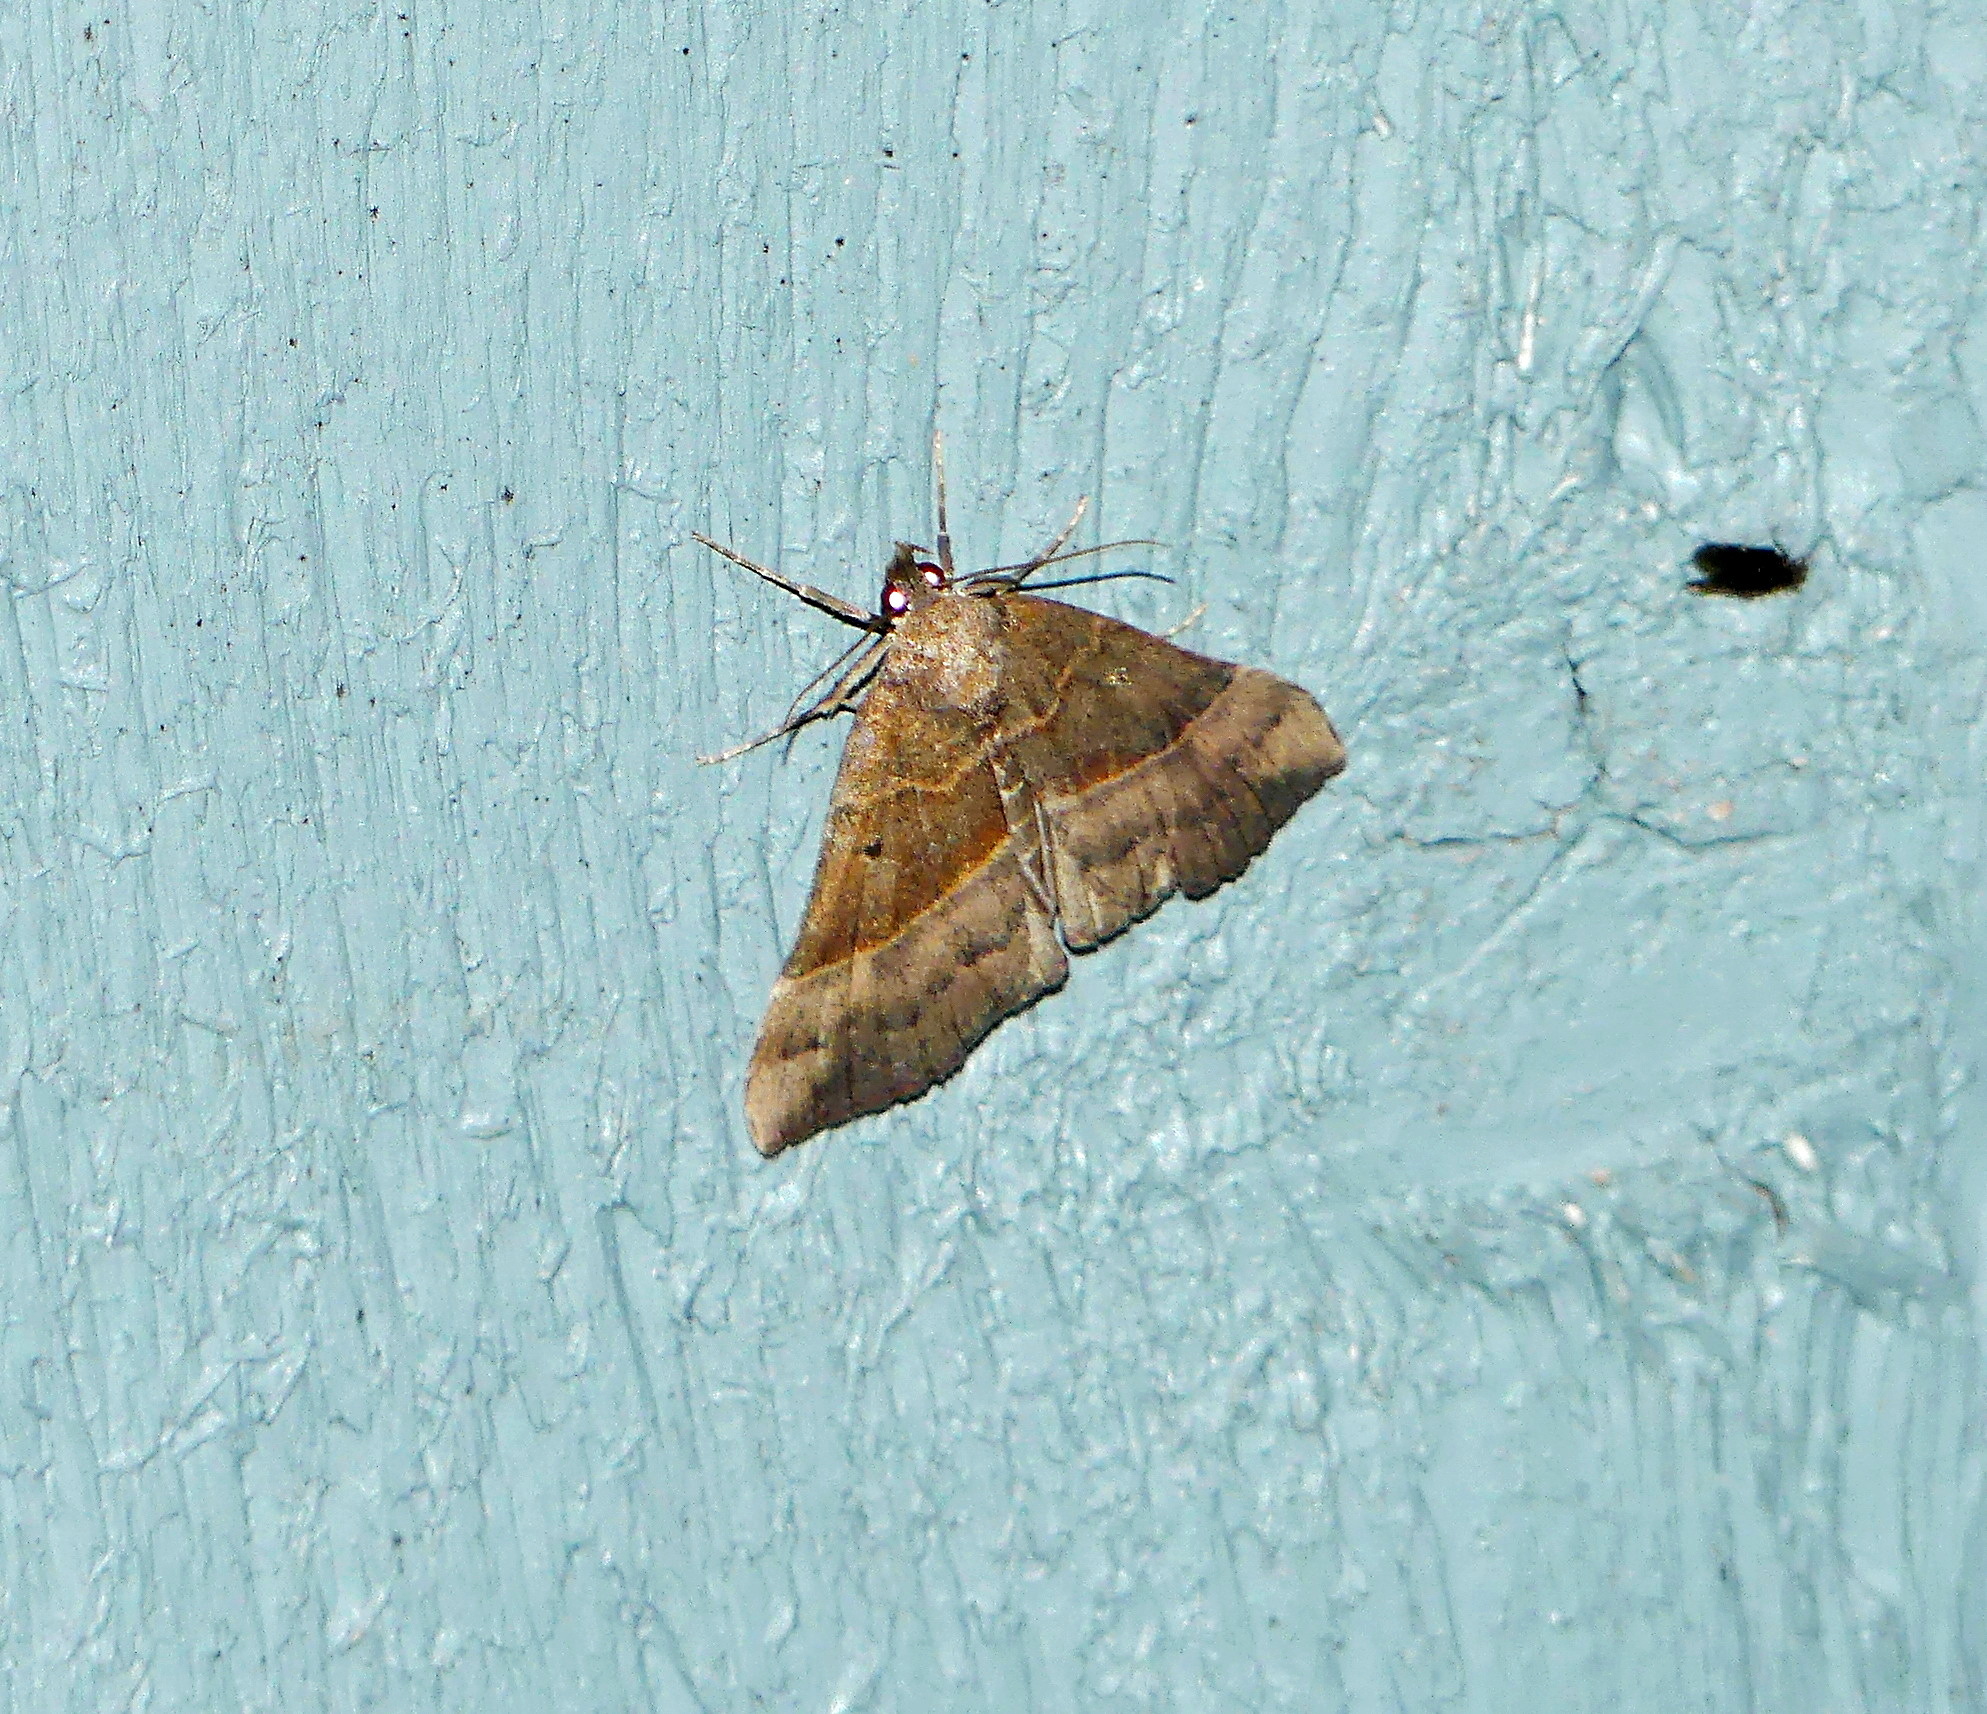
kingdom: Animalia
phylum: Arthropoda
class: Insecta
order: Lepidoptera
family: Erebidae
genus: Hypena
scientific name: Hypena eductalis
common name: Red-footed snout
